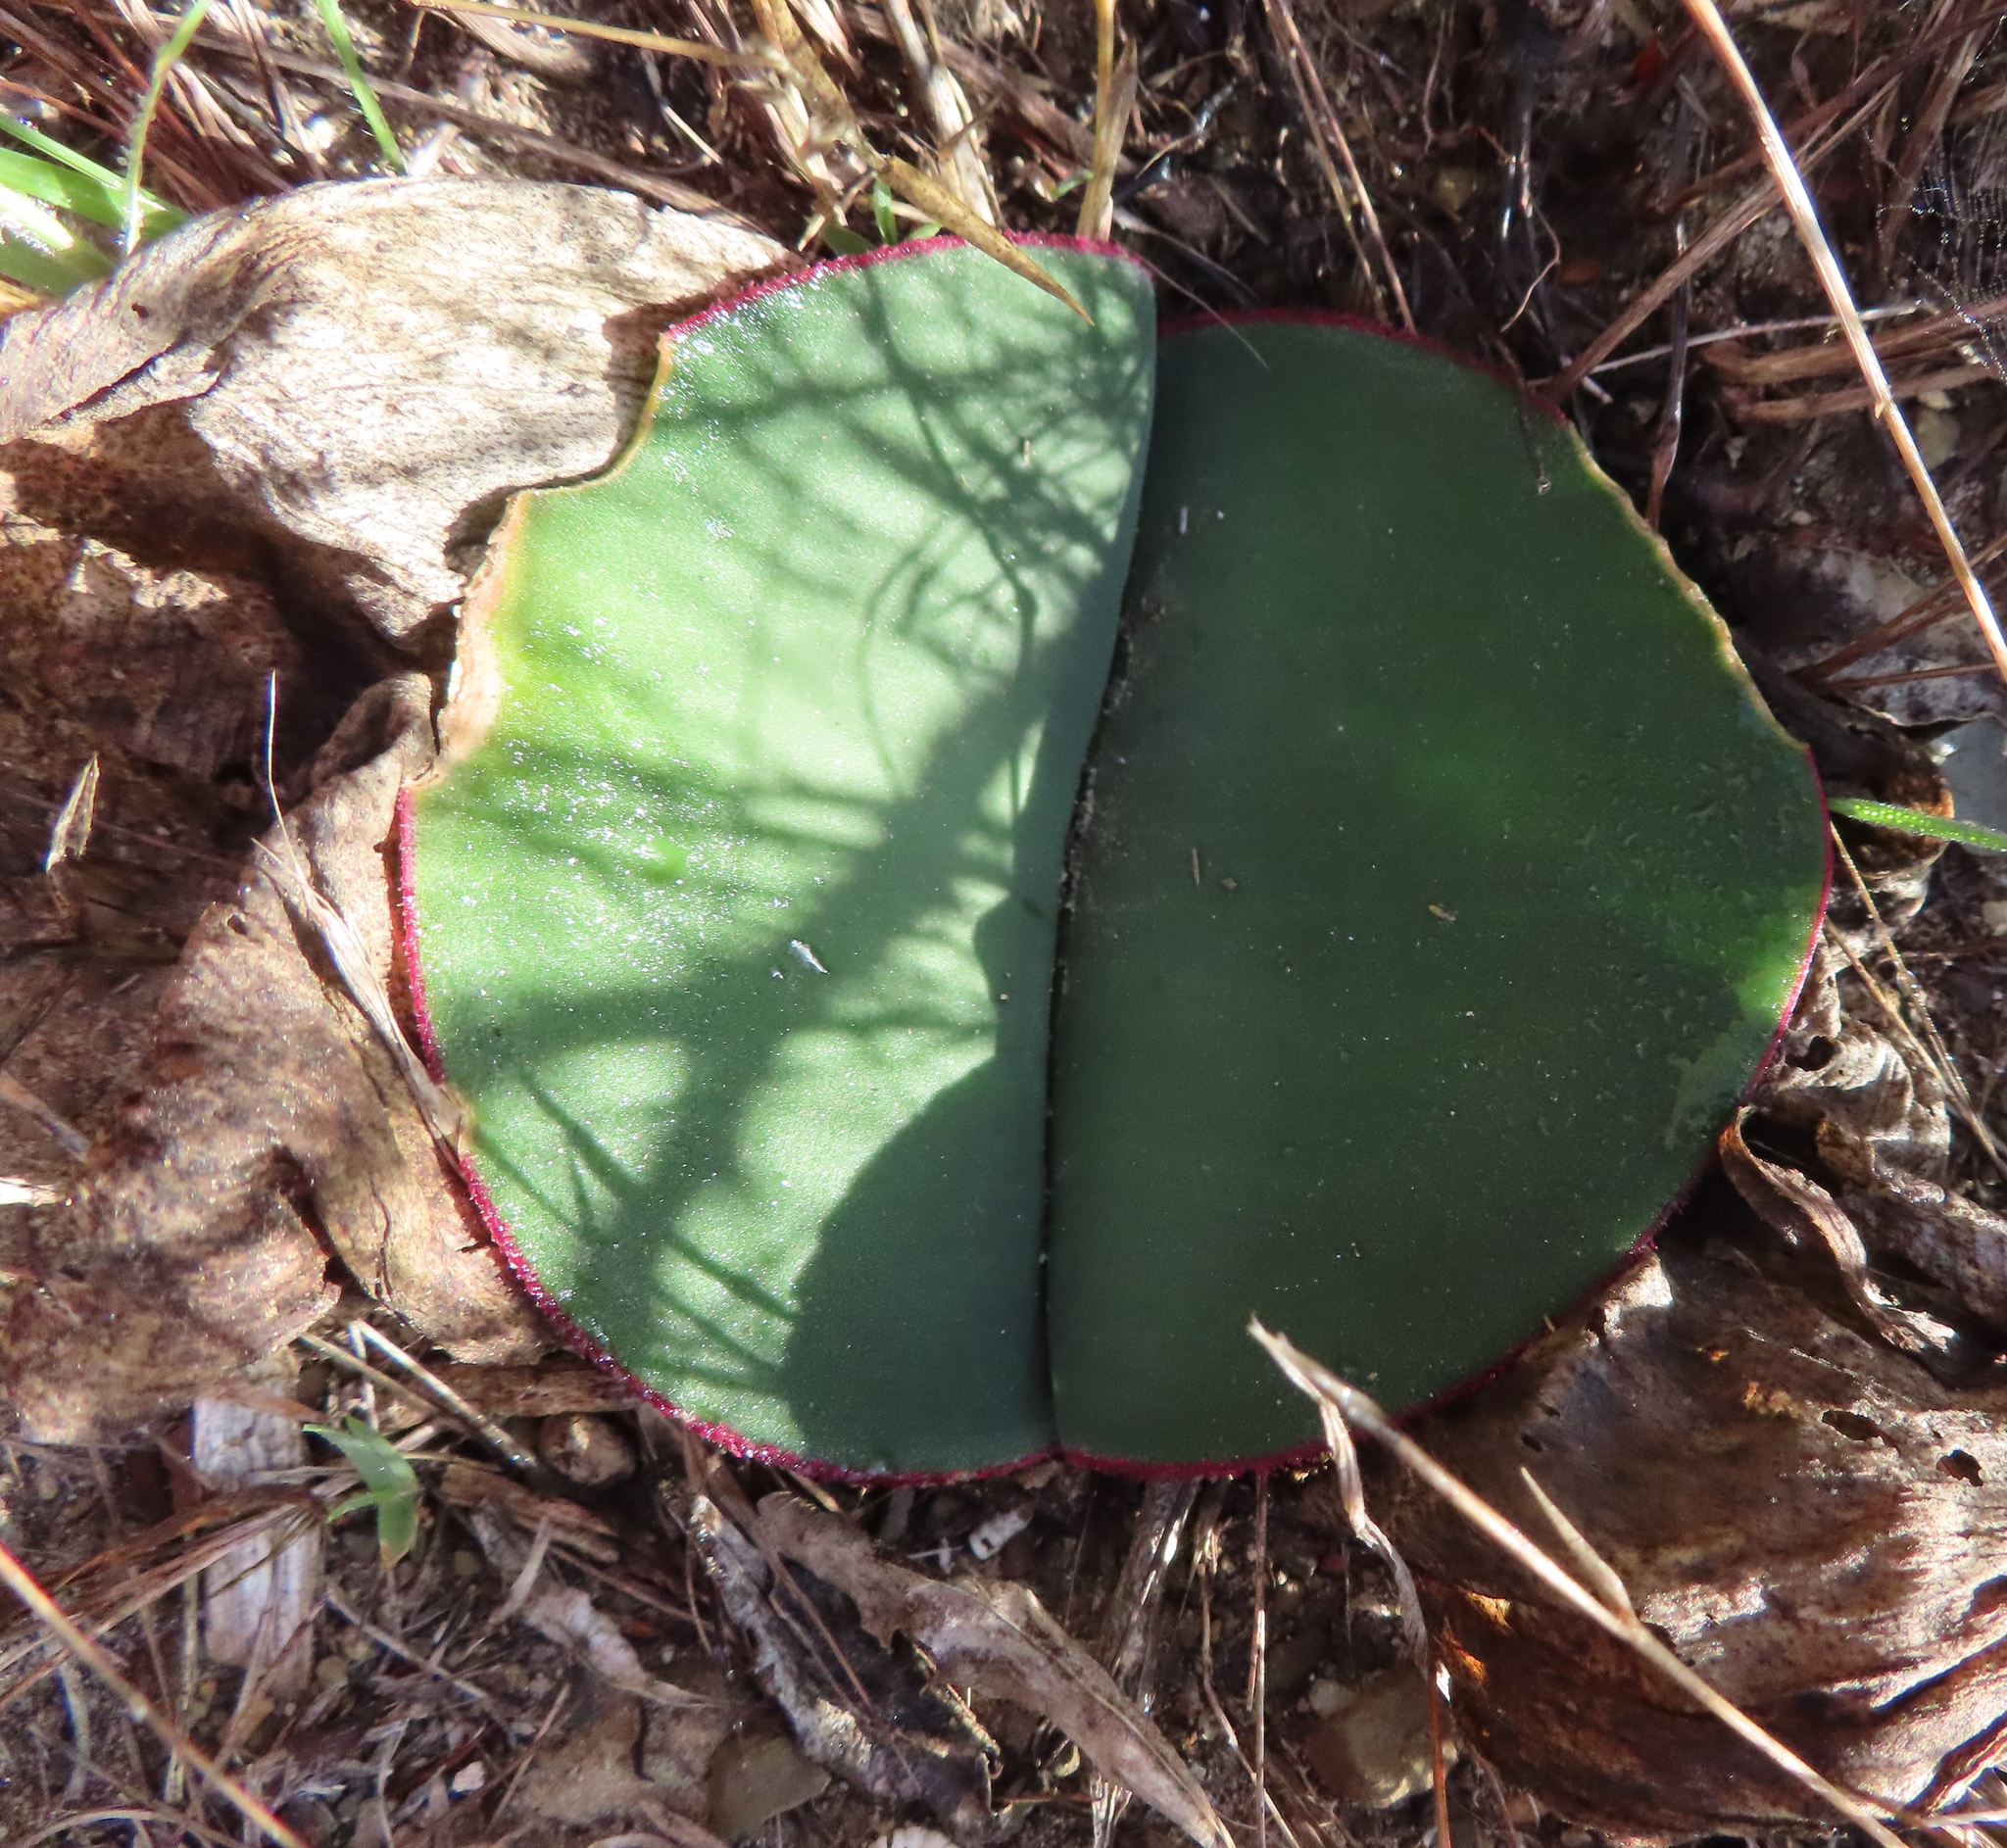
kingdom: Plantae
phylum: Tracheophyta
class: Liliopsida
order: Asparagales
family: Amaryllidaceae
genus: Haemanthus
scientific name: Haemanthus sanguineus
